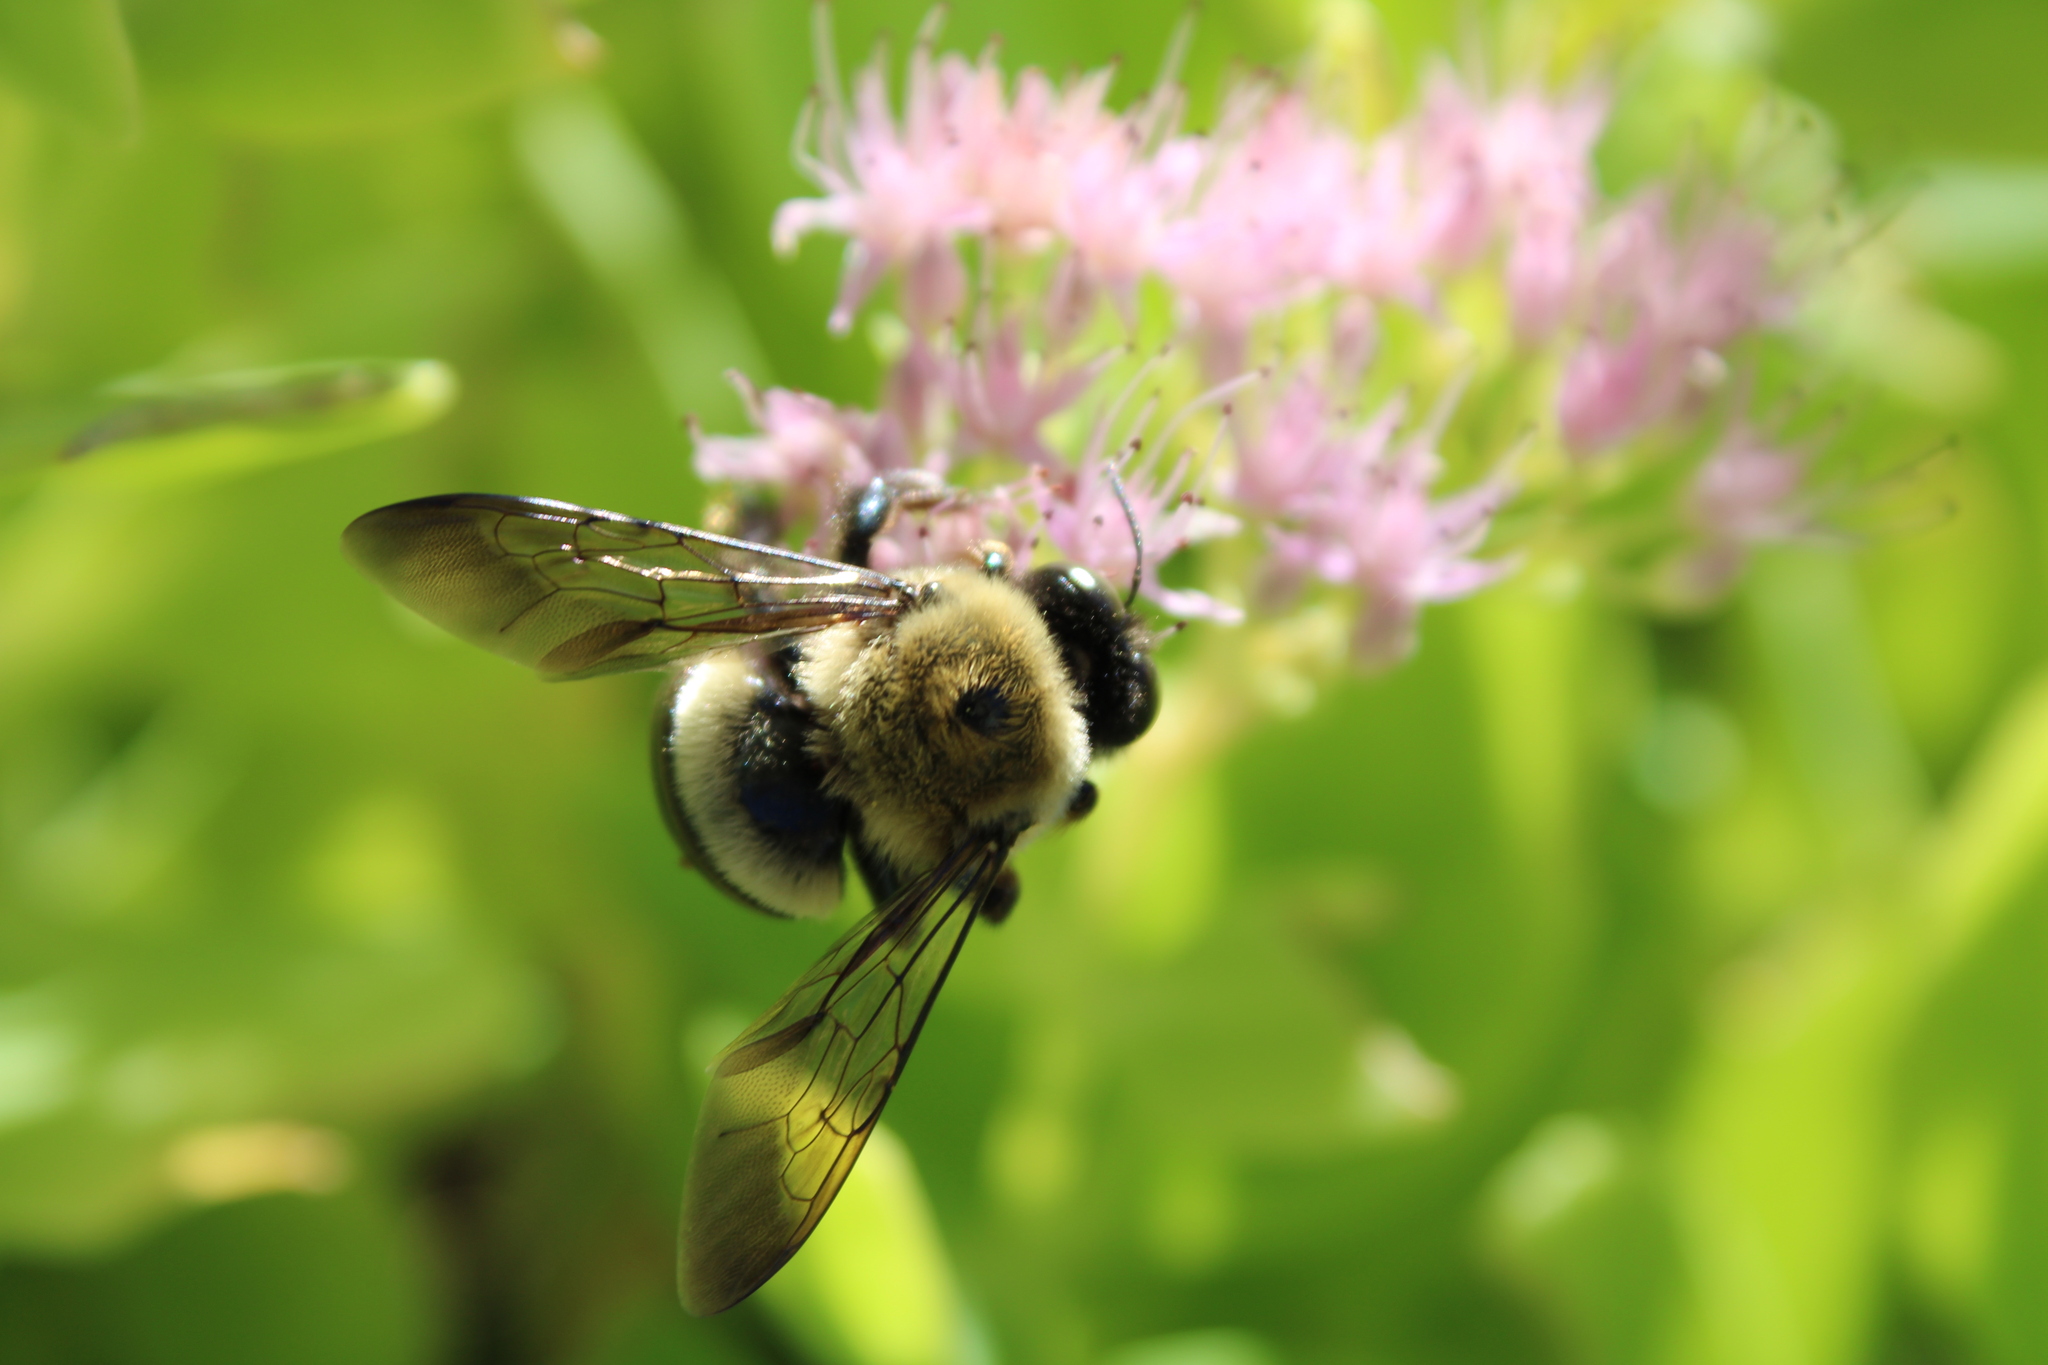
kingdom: Animalia
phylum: Arthropoda
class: Insecta
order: Hymenoptera
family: Apidae
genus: Xylocopa
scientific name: Xylocopa virginica
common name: Carpenter bee
